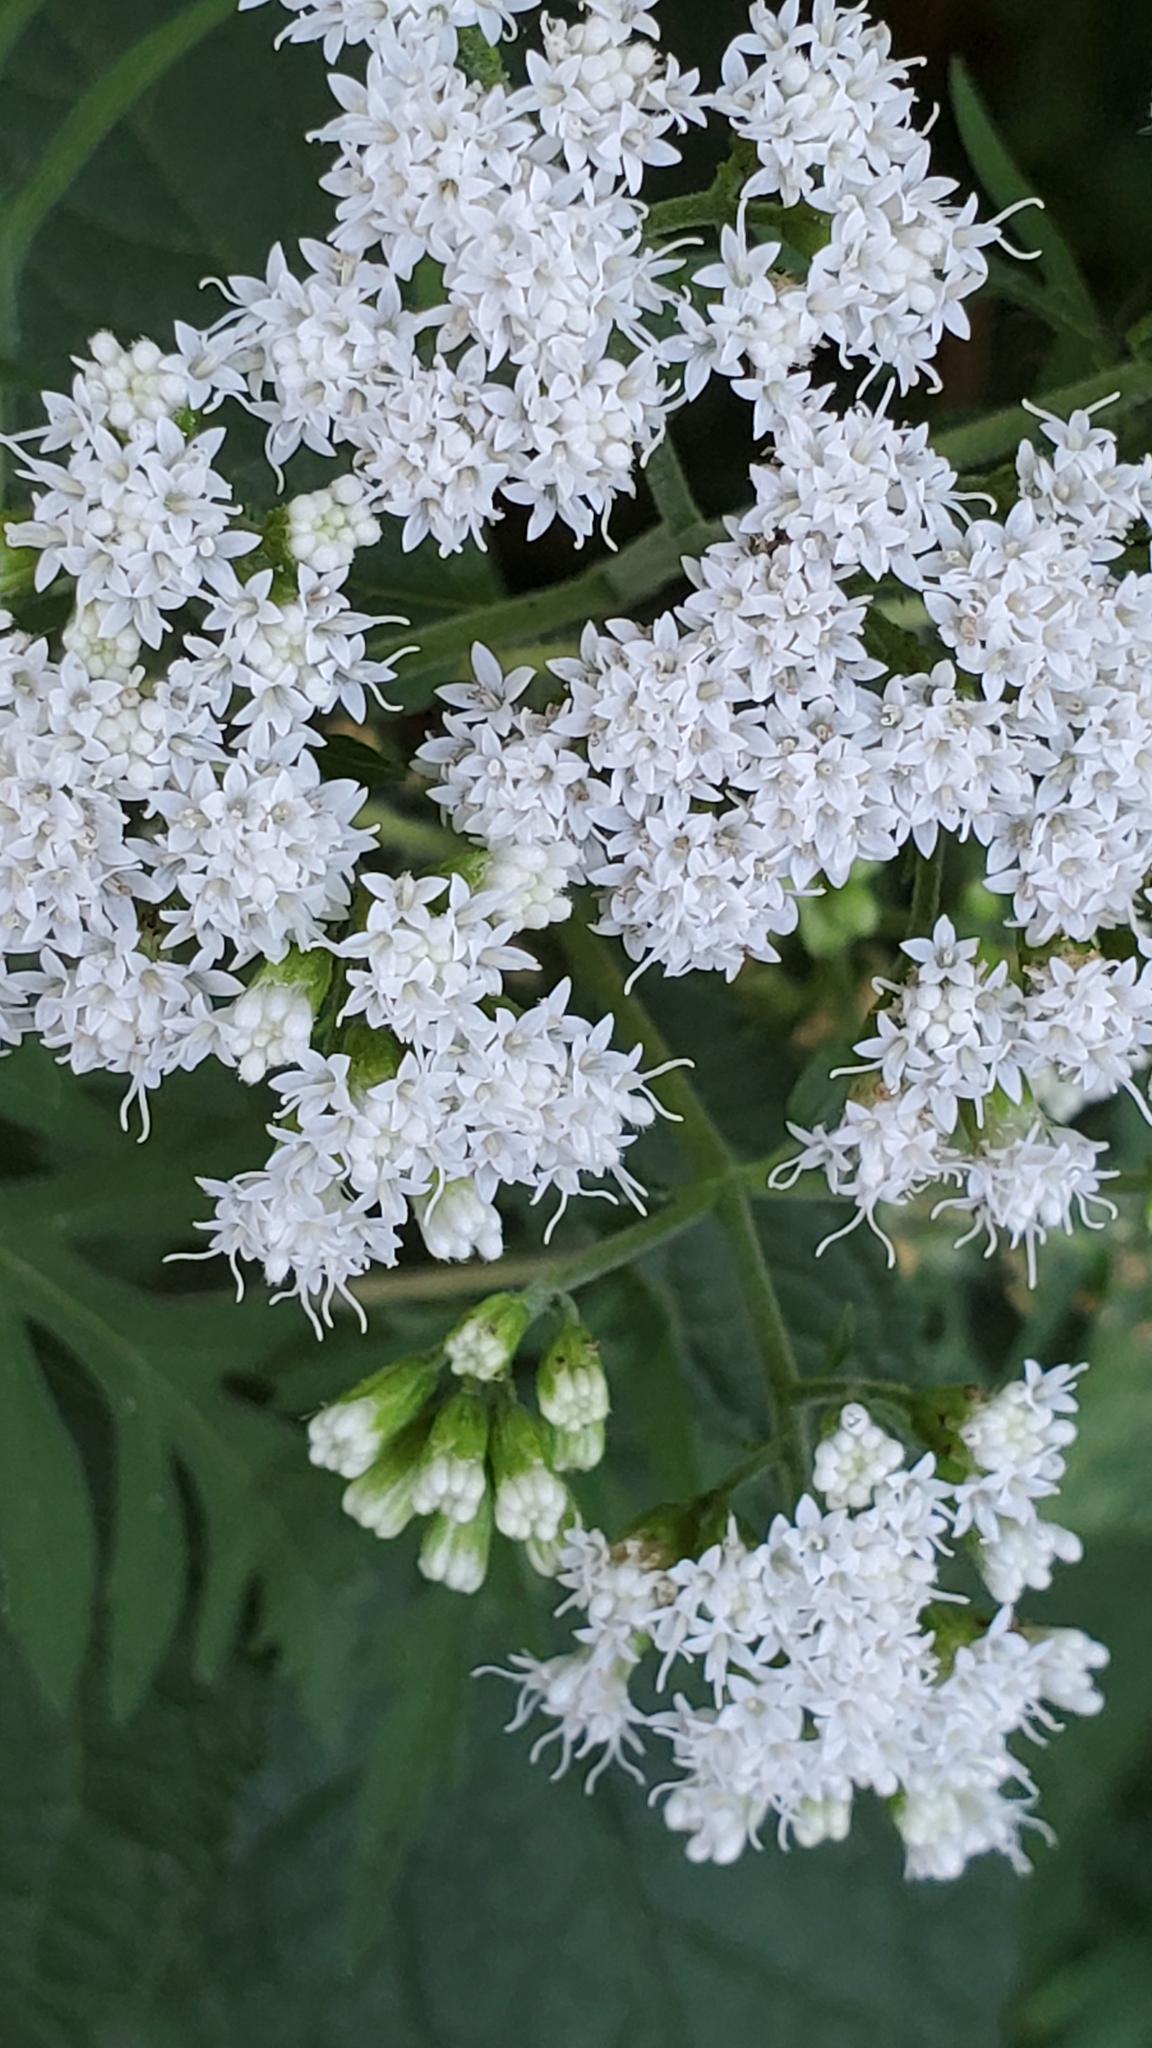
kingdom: Plantae
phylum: Tracheophyta
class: Magnoliopsida
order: Asterales
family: Asteraceae
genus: Ageratina
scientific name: Ageratina altissima
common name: White snakeroot
